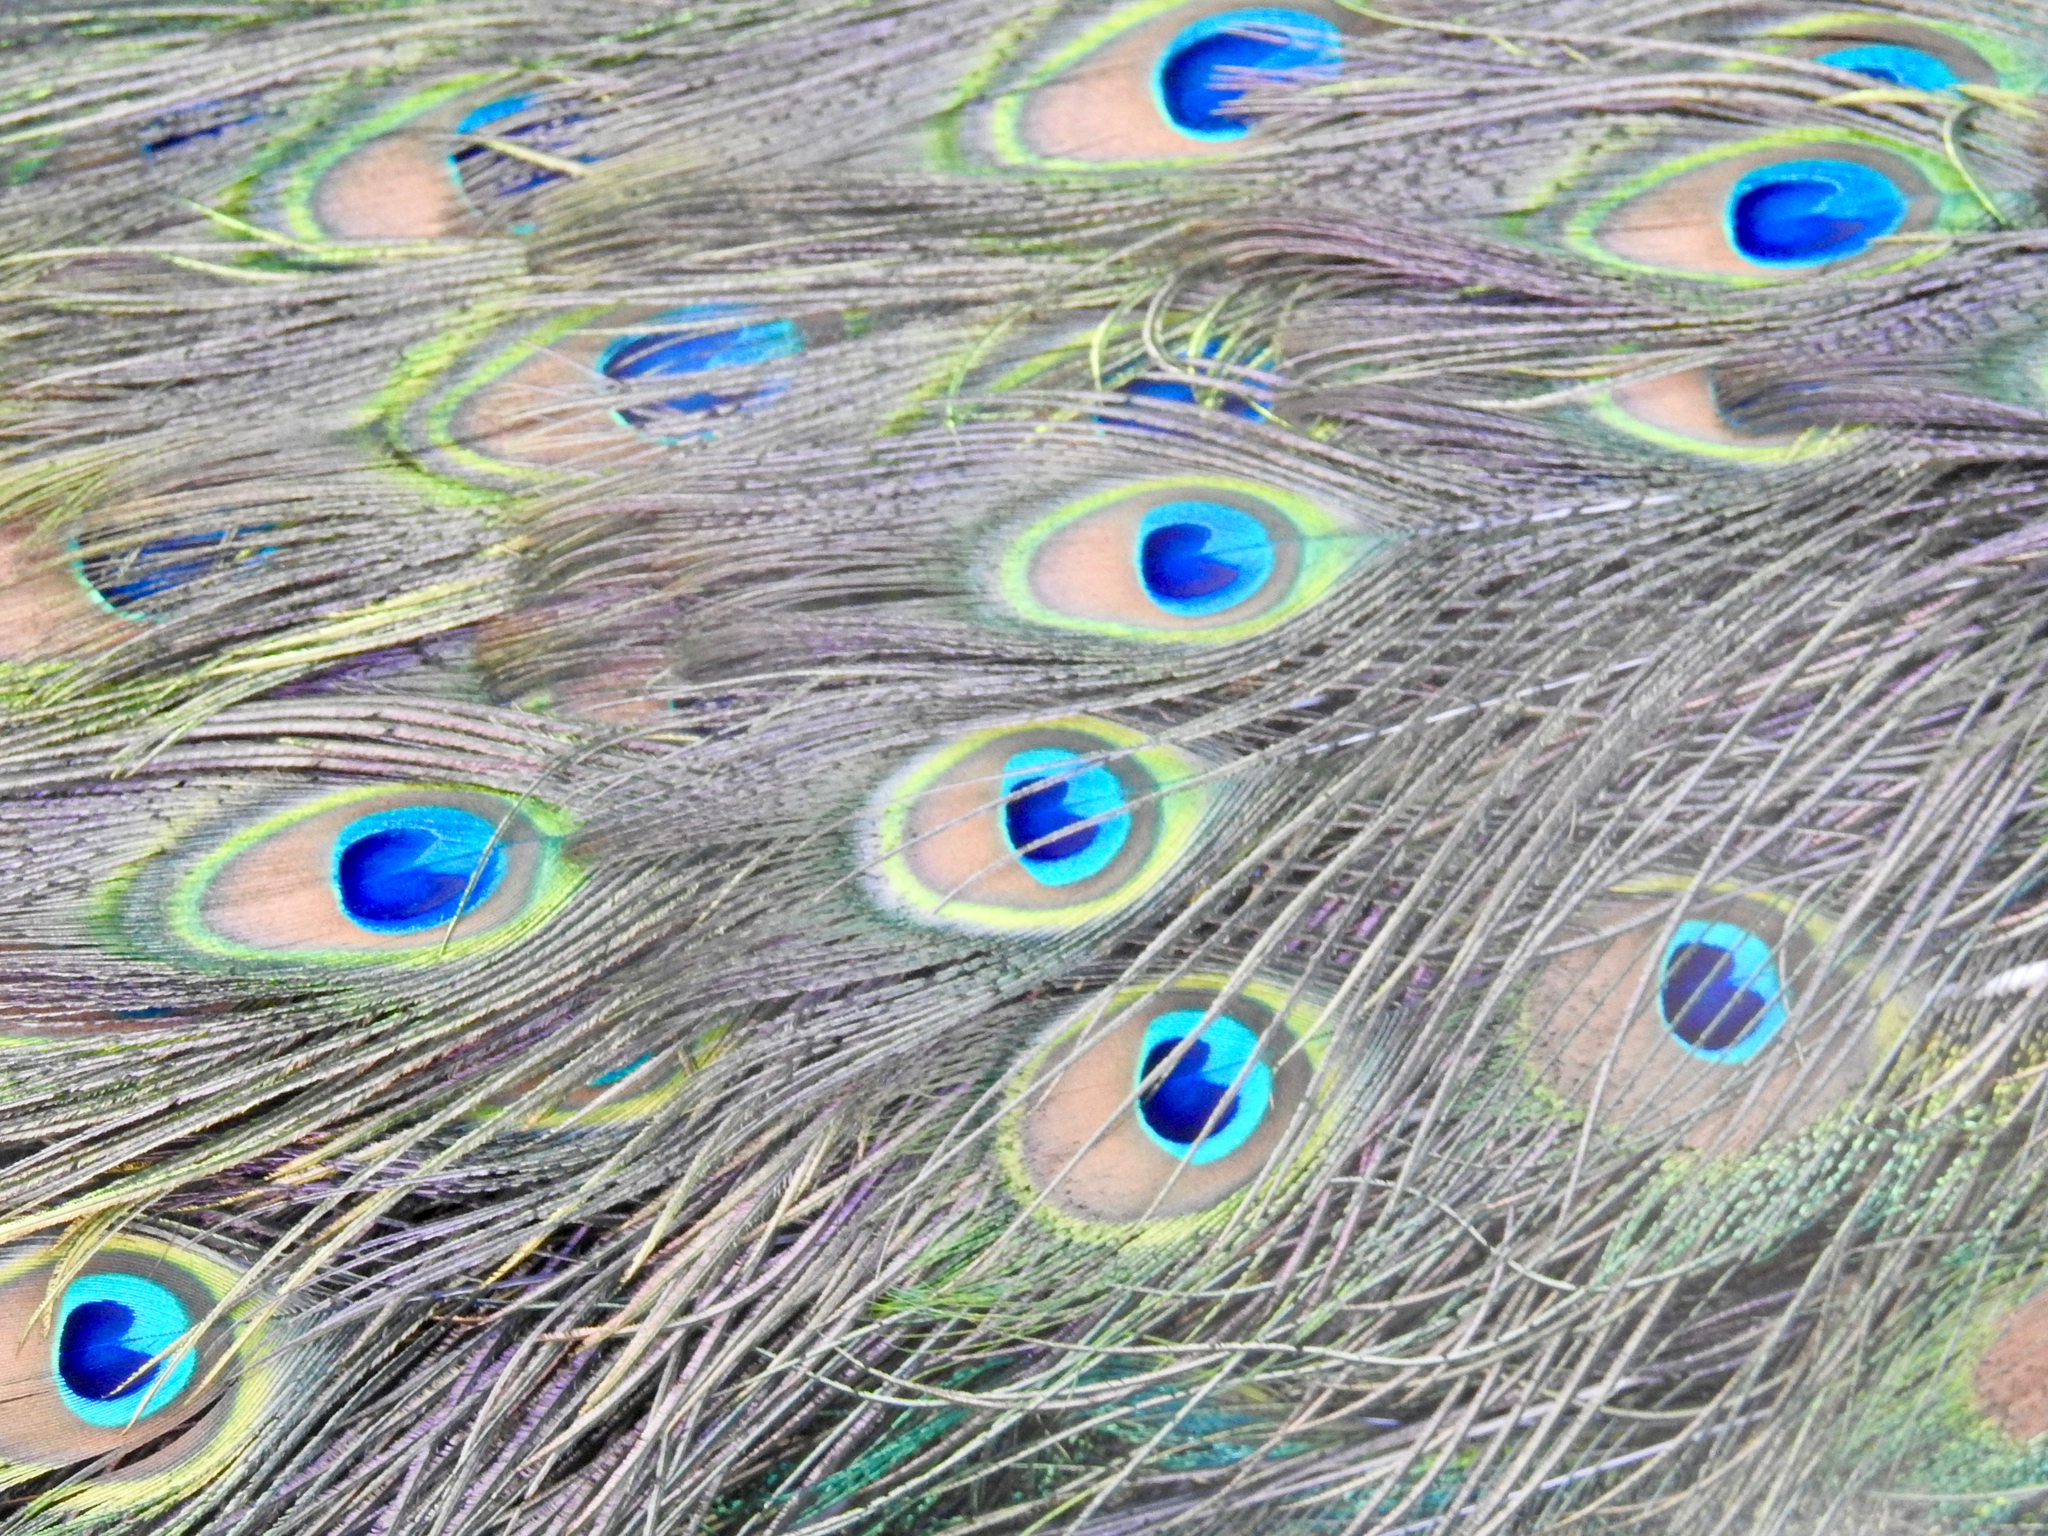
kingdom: Animalia
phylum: Chordata
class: Aves
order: Galliformes
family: Phasianidae
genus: Pavo
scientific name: Pavo cristatus
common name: Indian peafowl
